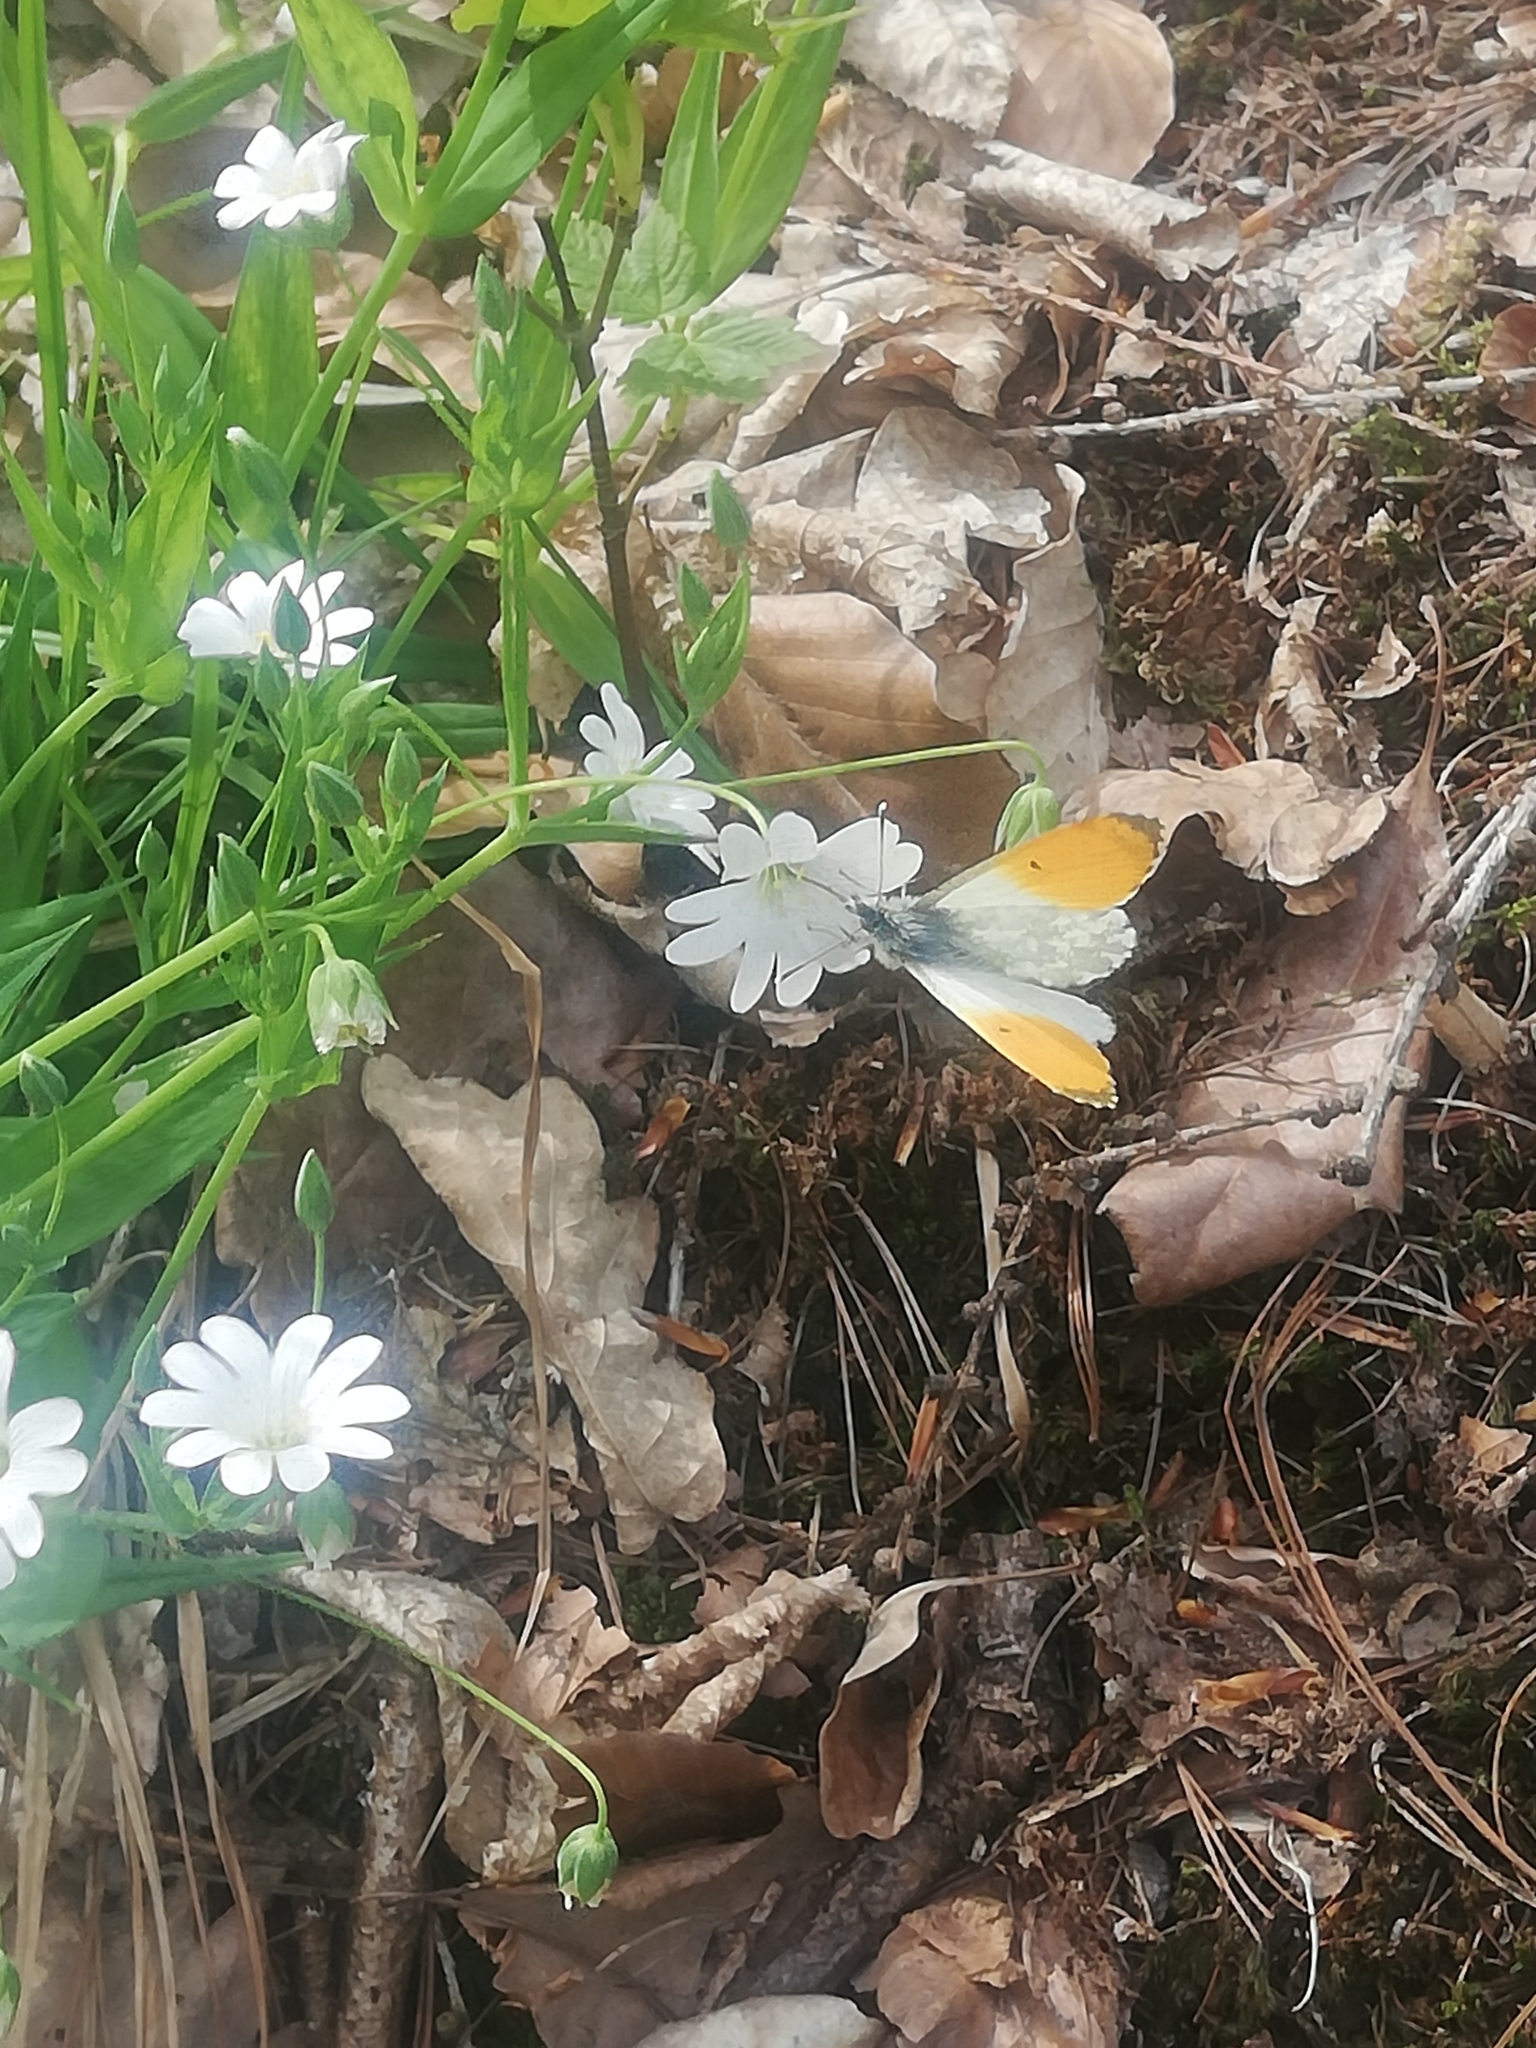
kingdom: Animalia
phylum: Arthropoda
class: Insecta
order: Lepidoptera
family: Pieridae
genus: Anthocharis
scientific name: Anthocharis cardamines
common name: Orange-tip
